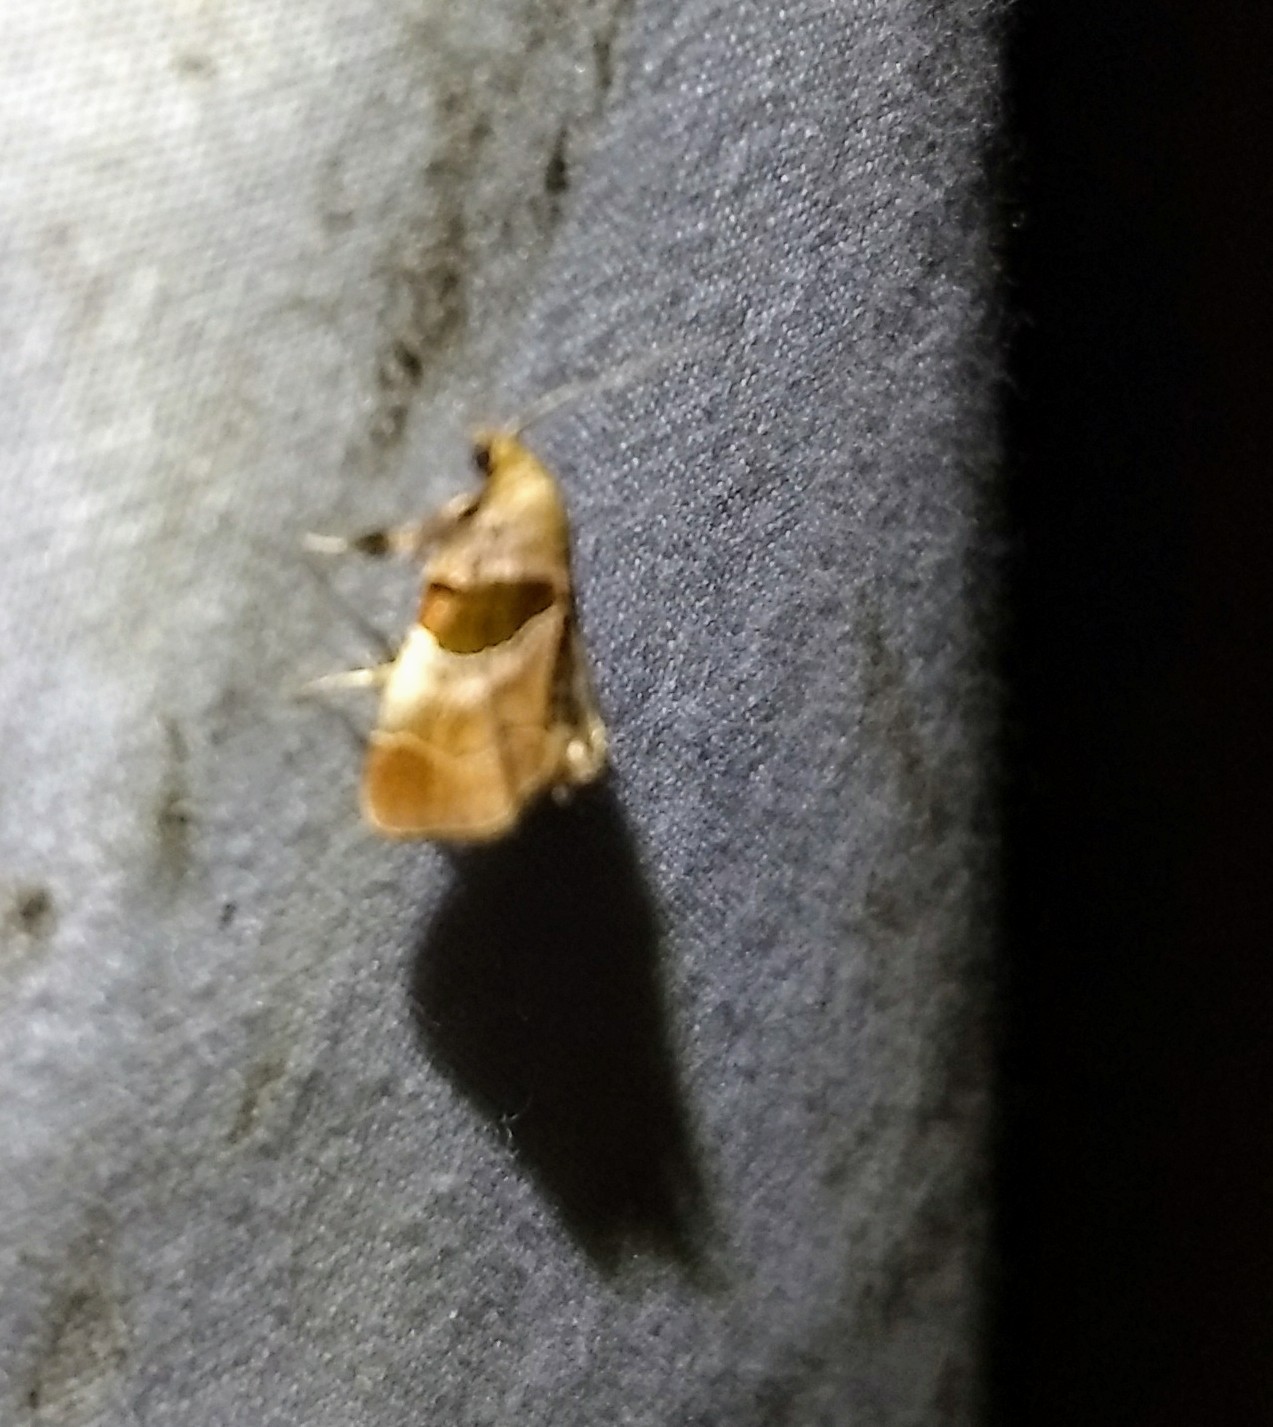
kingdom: Animalia
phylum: Arthropoda
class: Insecta
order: Lepidoptera
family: Pyralidae
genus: Tosale
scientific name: Tosale oviplagalis
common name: Dimorphic tosale moth
